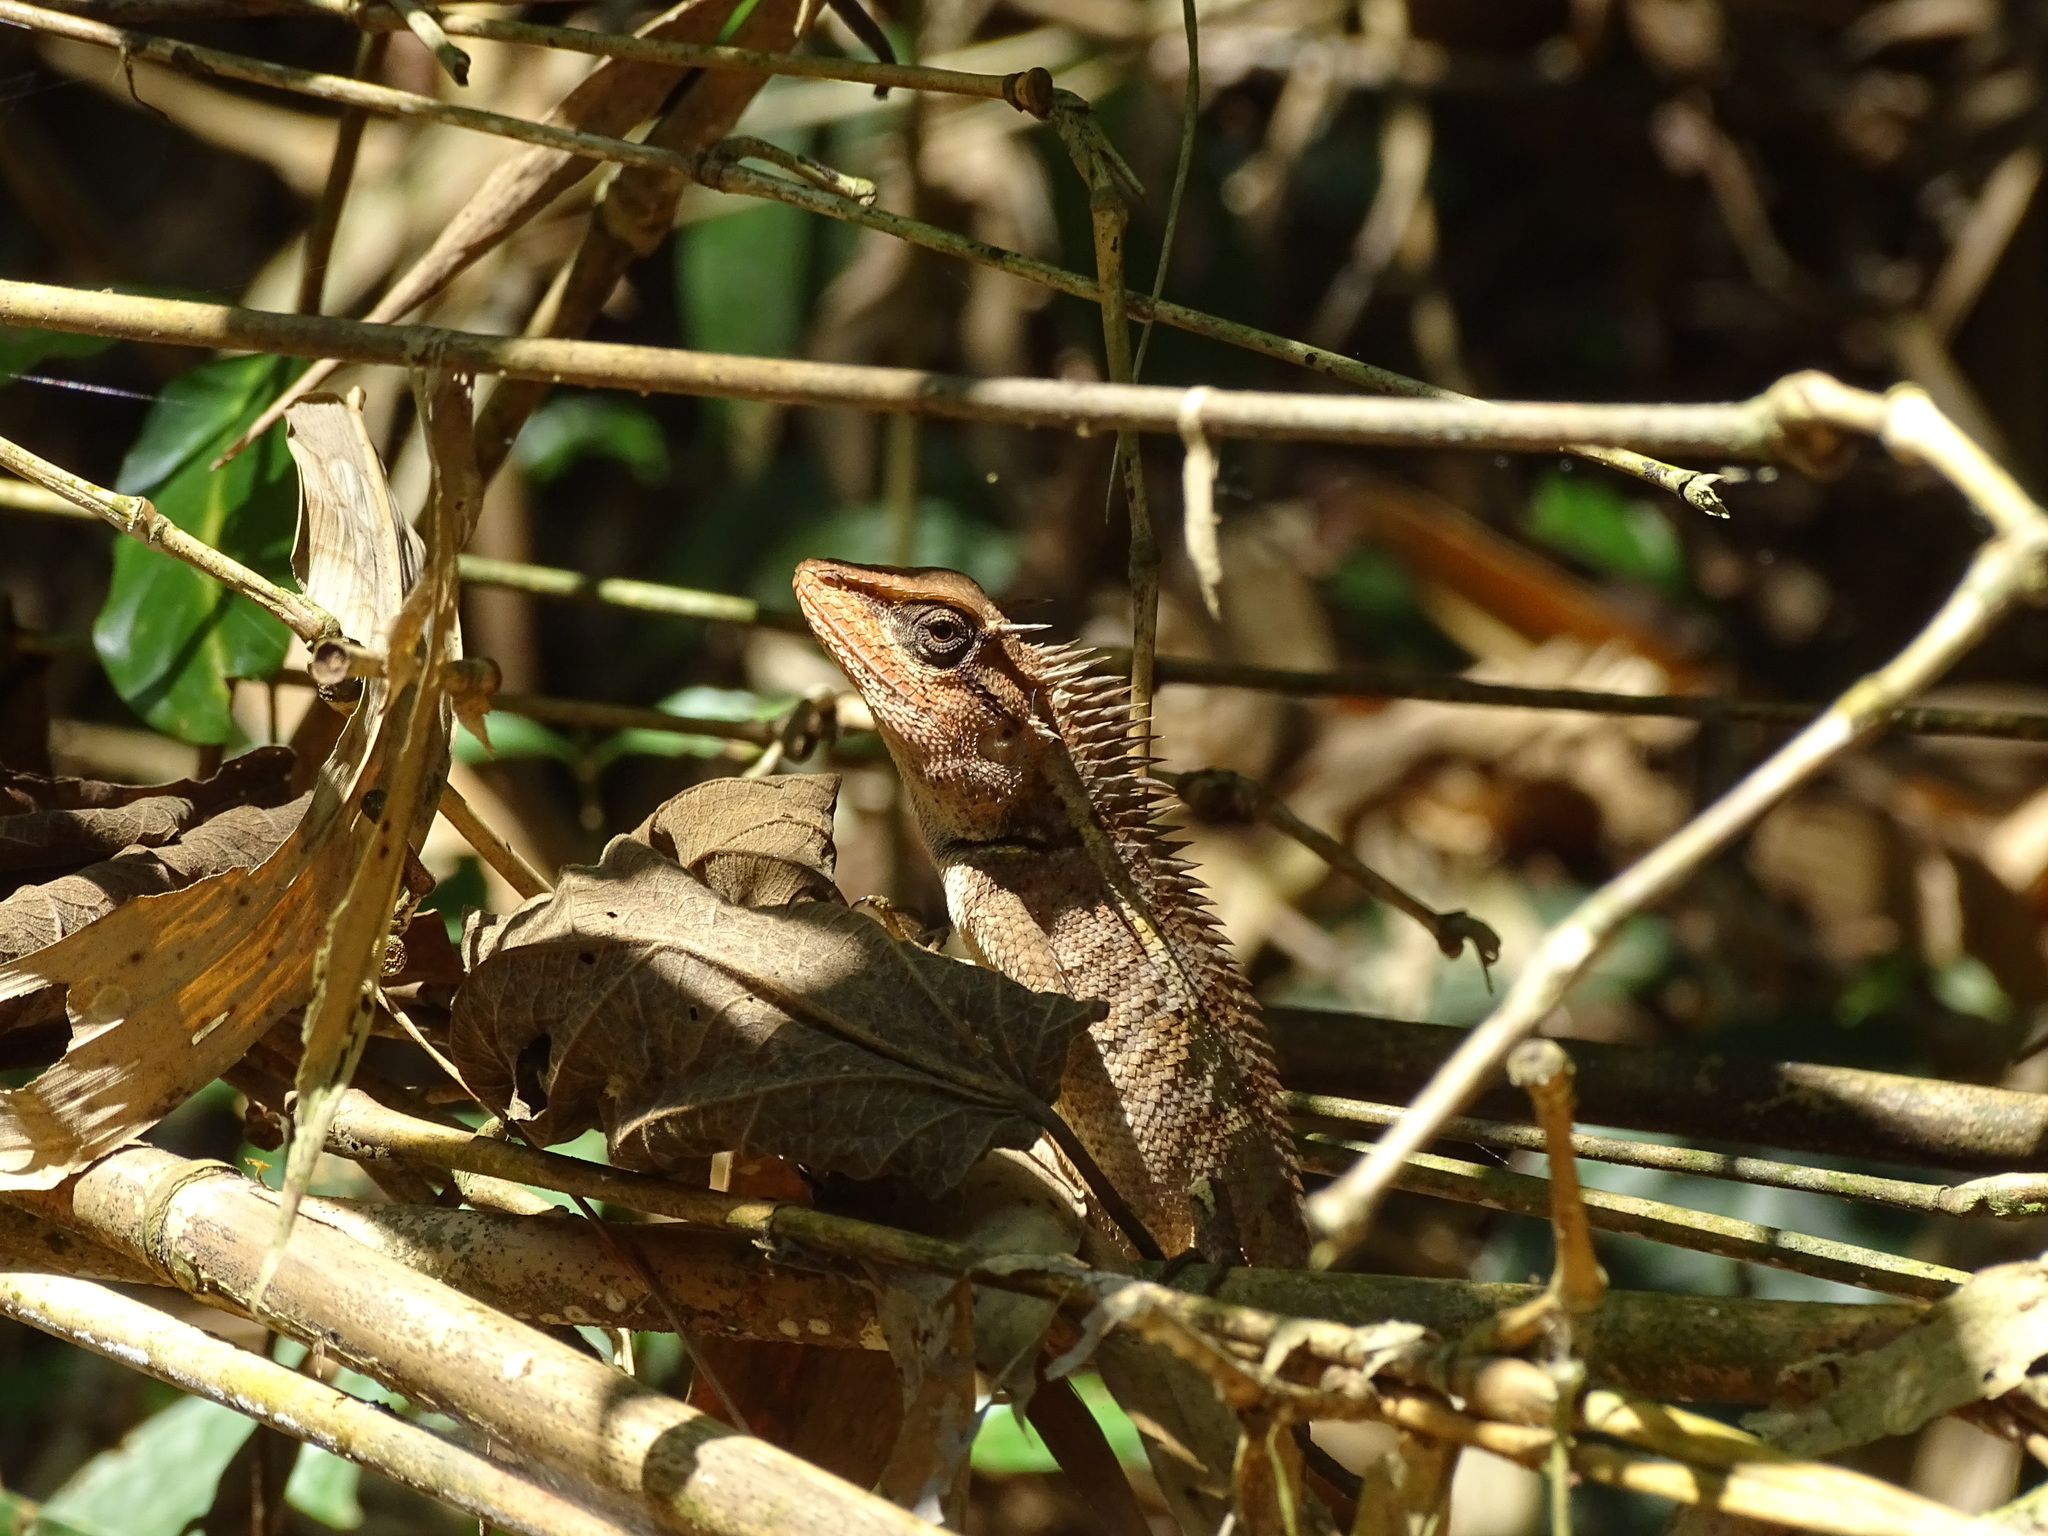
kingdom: Animalia
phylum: Chordata
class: Squamata
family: Agamidae
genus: Calotes
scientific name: Calotes emma
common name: Thailand bloodsucker
